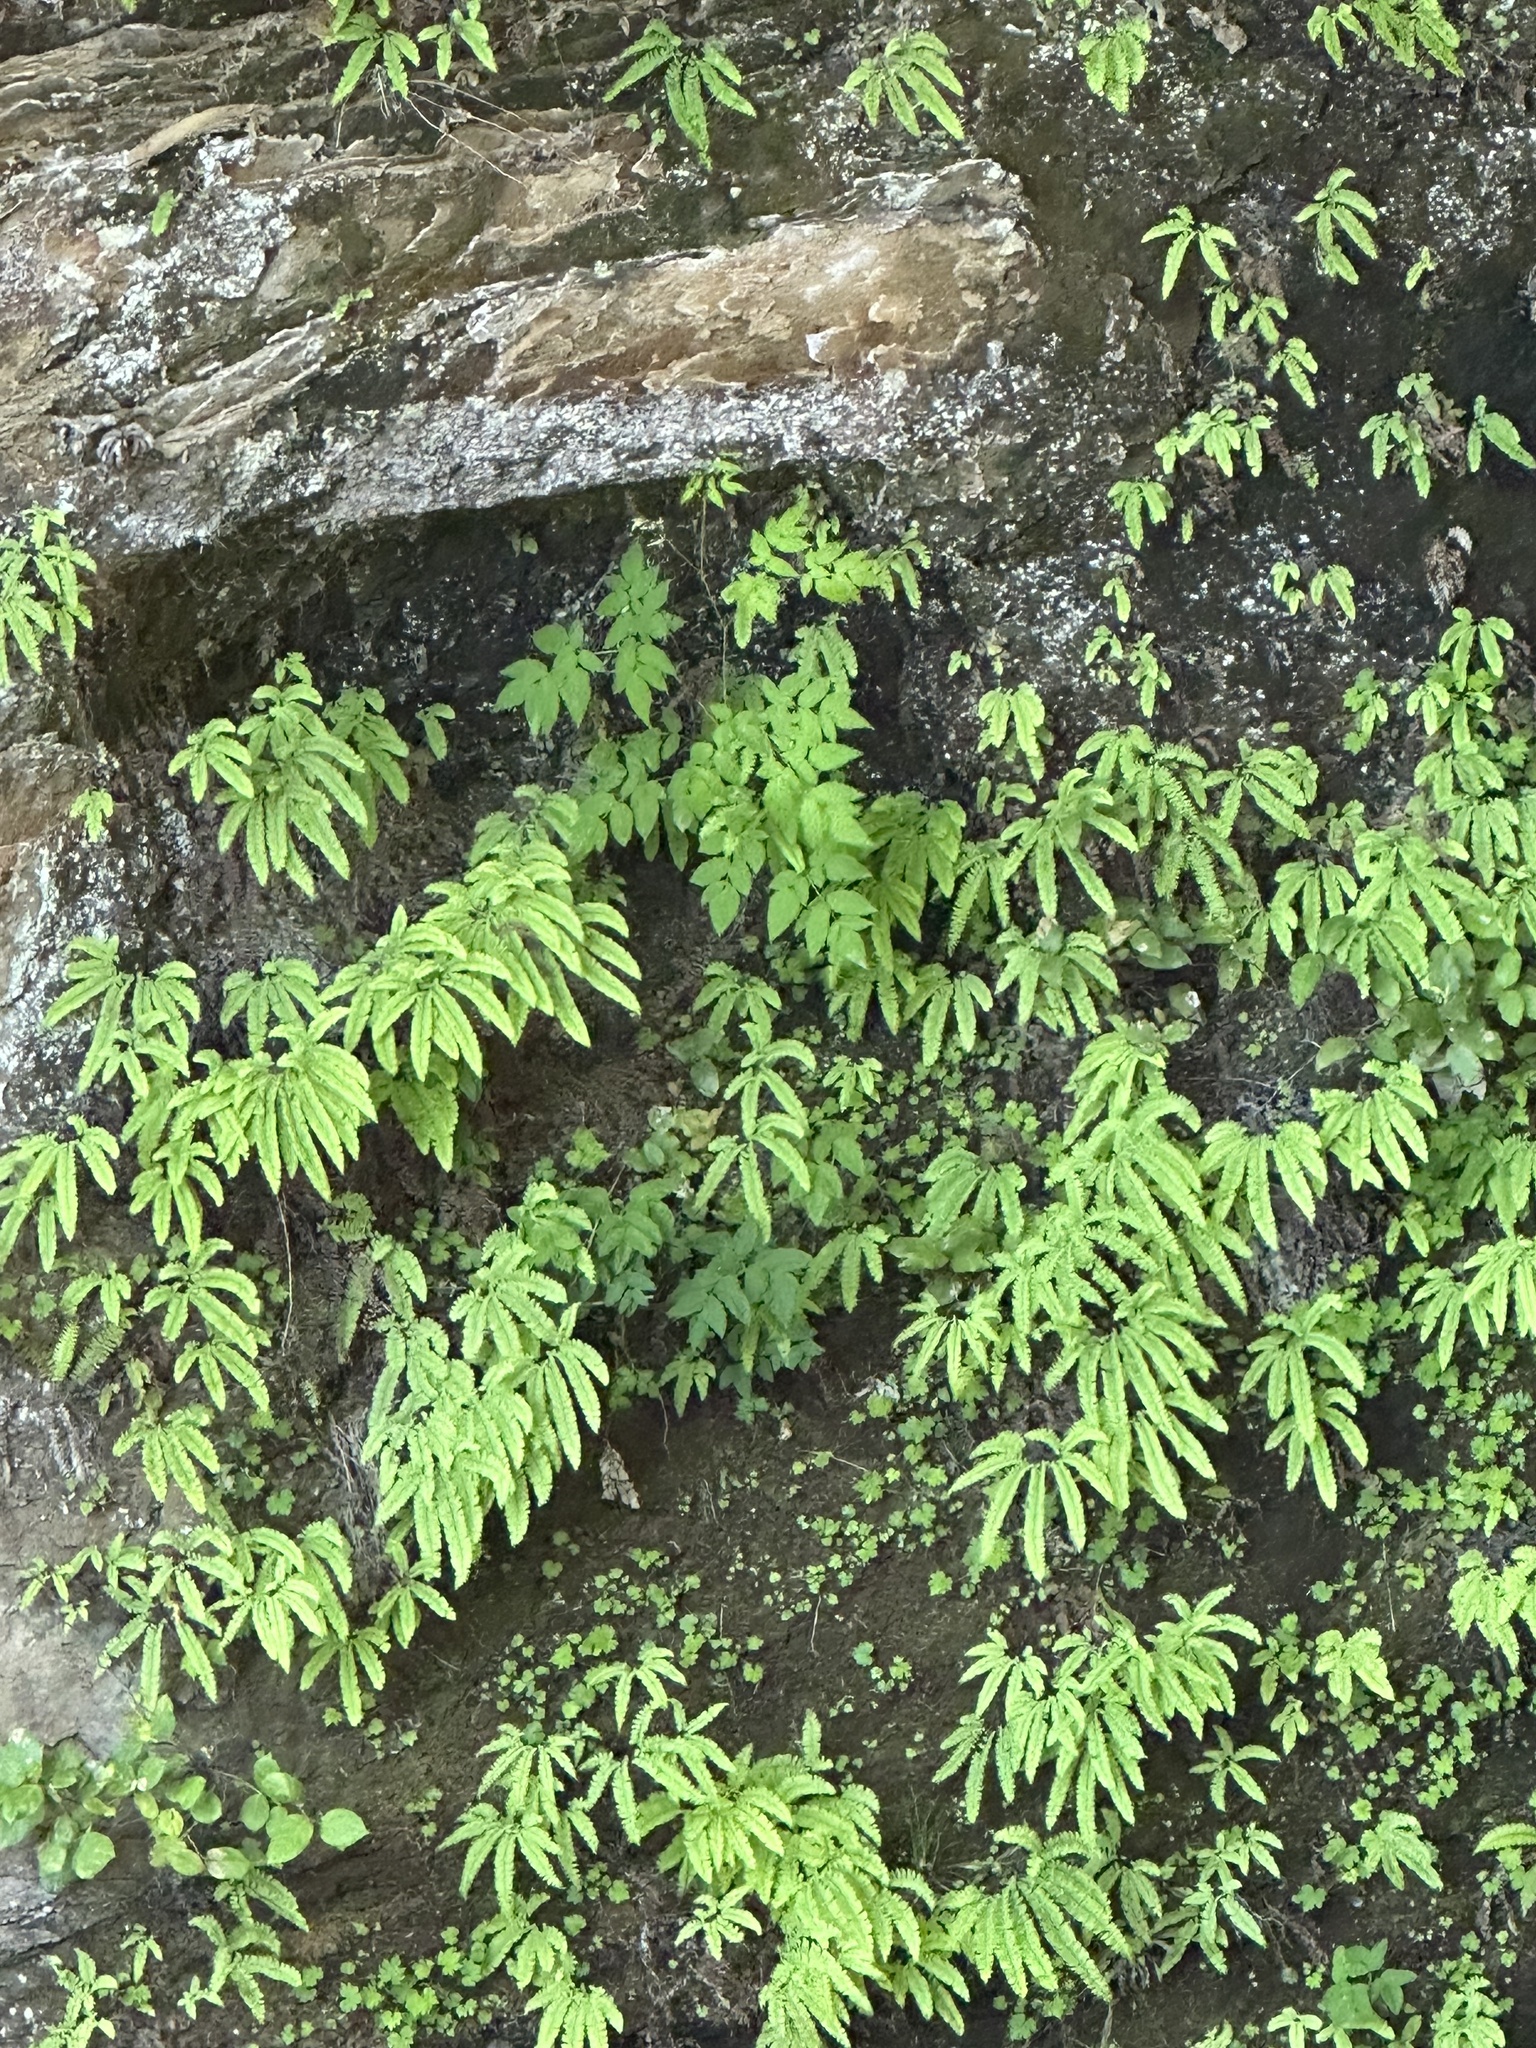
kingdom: Plantae
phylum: Tracheophyta
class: Polypodiopsida
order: Polypodiales
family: Pteridaceae
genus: Adiantum
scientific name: Adiantum aleuticum
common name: Aleutian maidenhair fern
